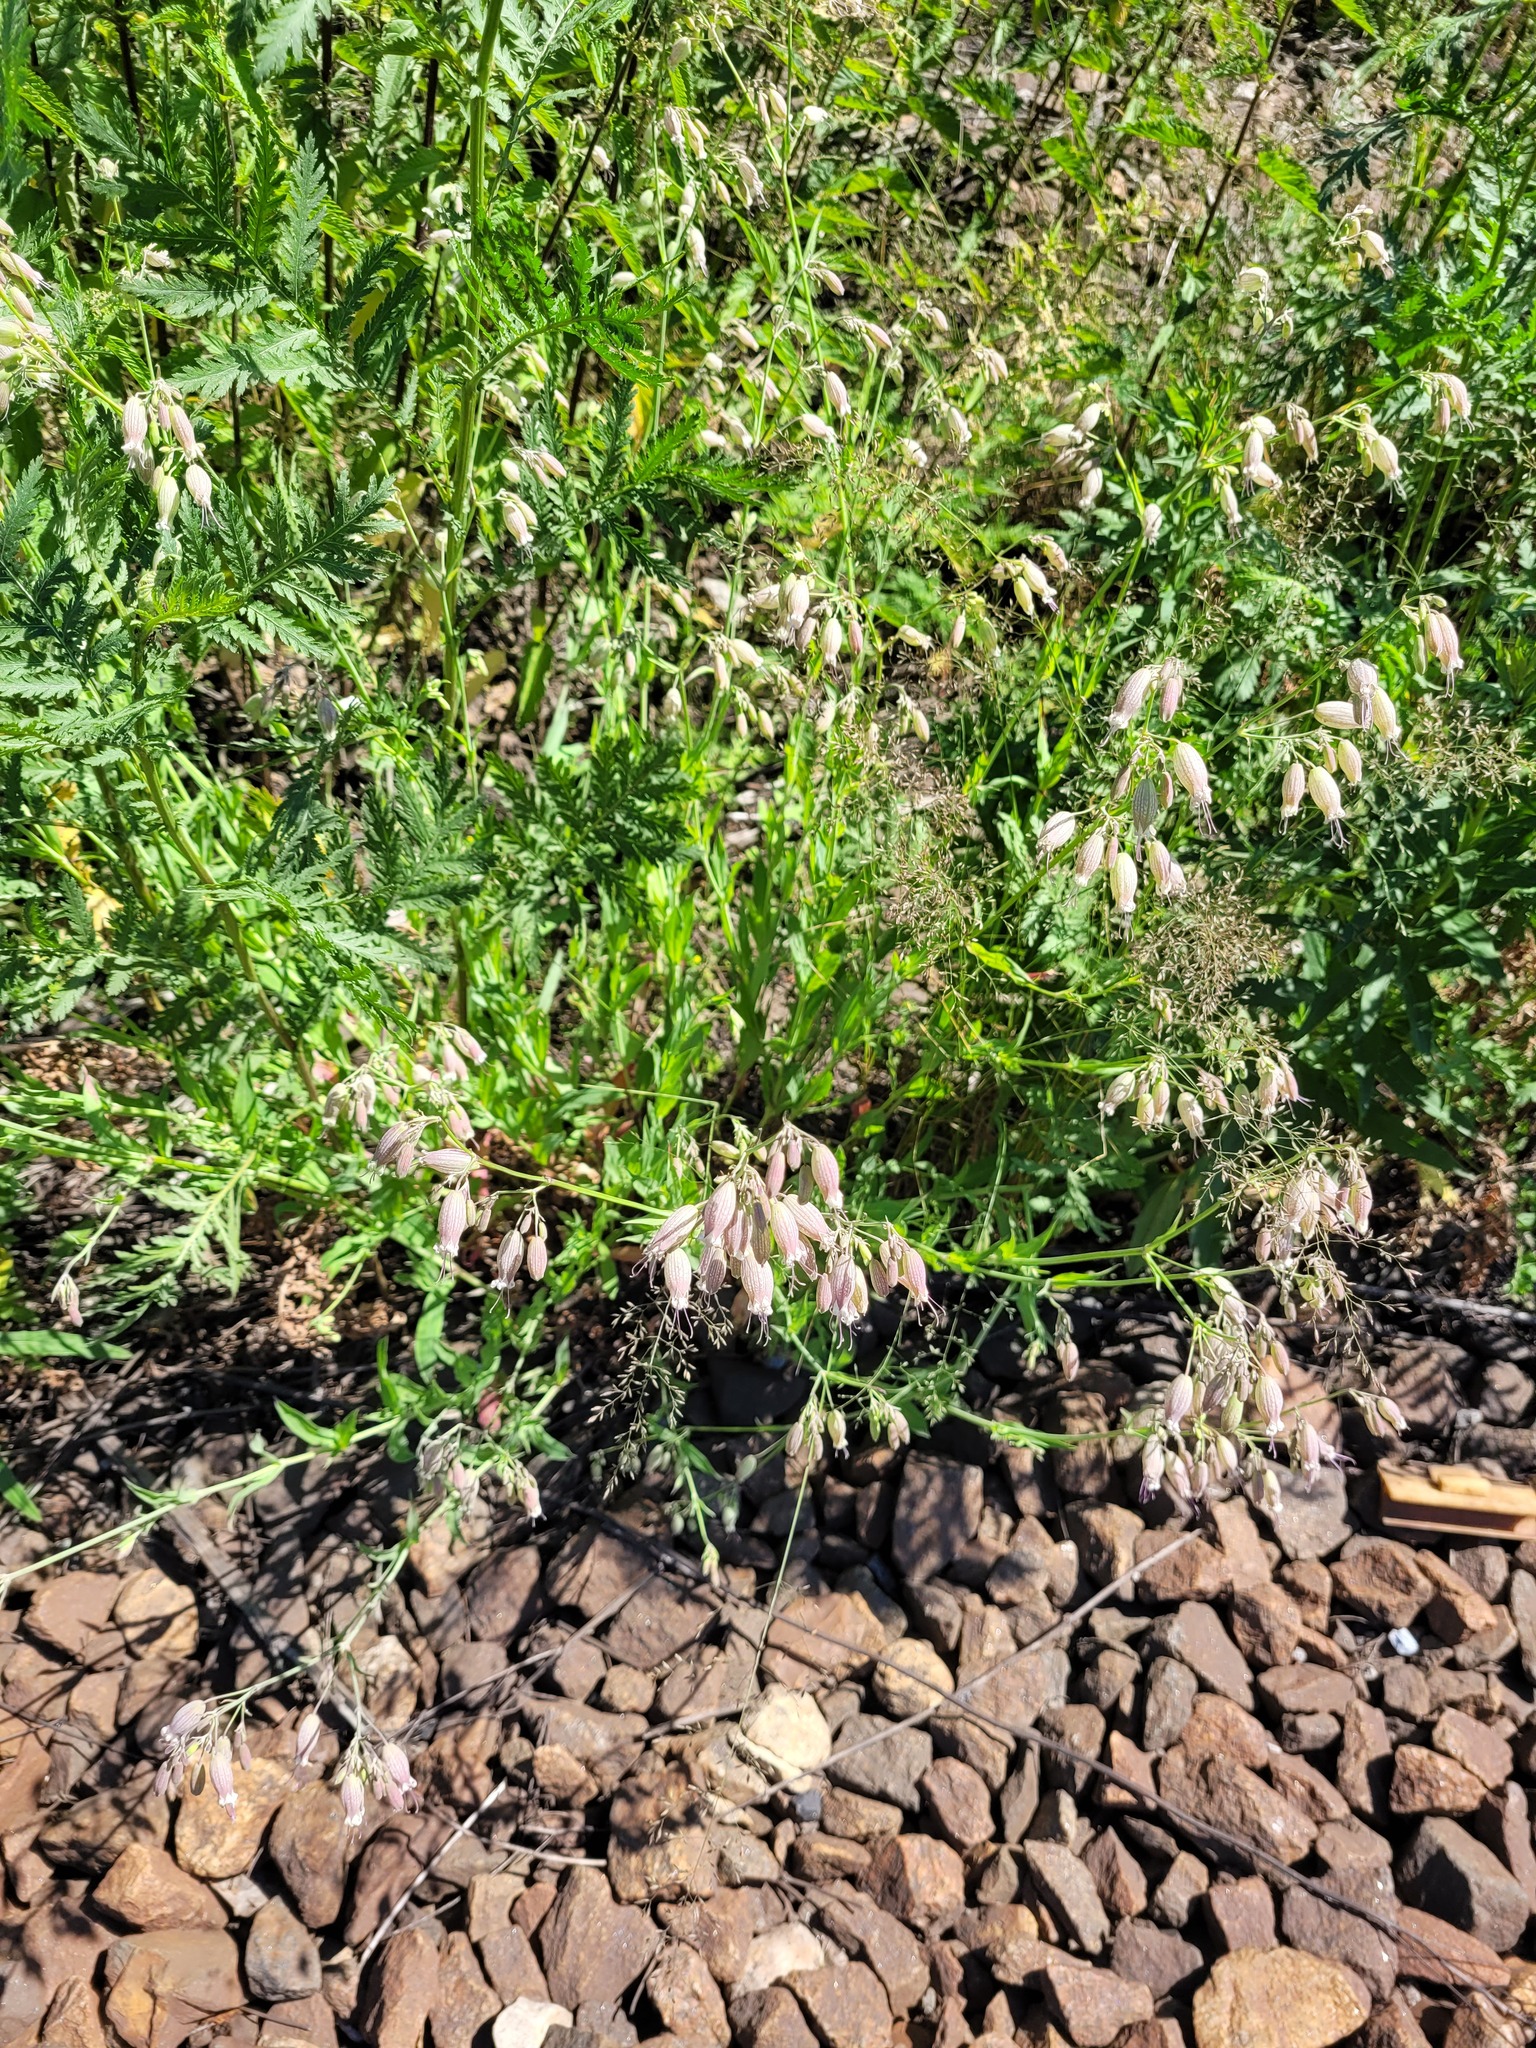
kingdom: Plantae
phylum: Tracheophyta
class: Magnoliopsida
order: Caryophyllales
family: Caryophyllaceae
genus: Silene
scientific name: Silene vulgaris
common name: Bladder campion
